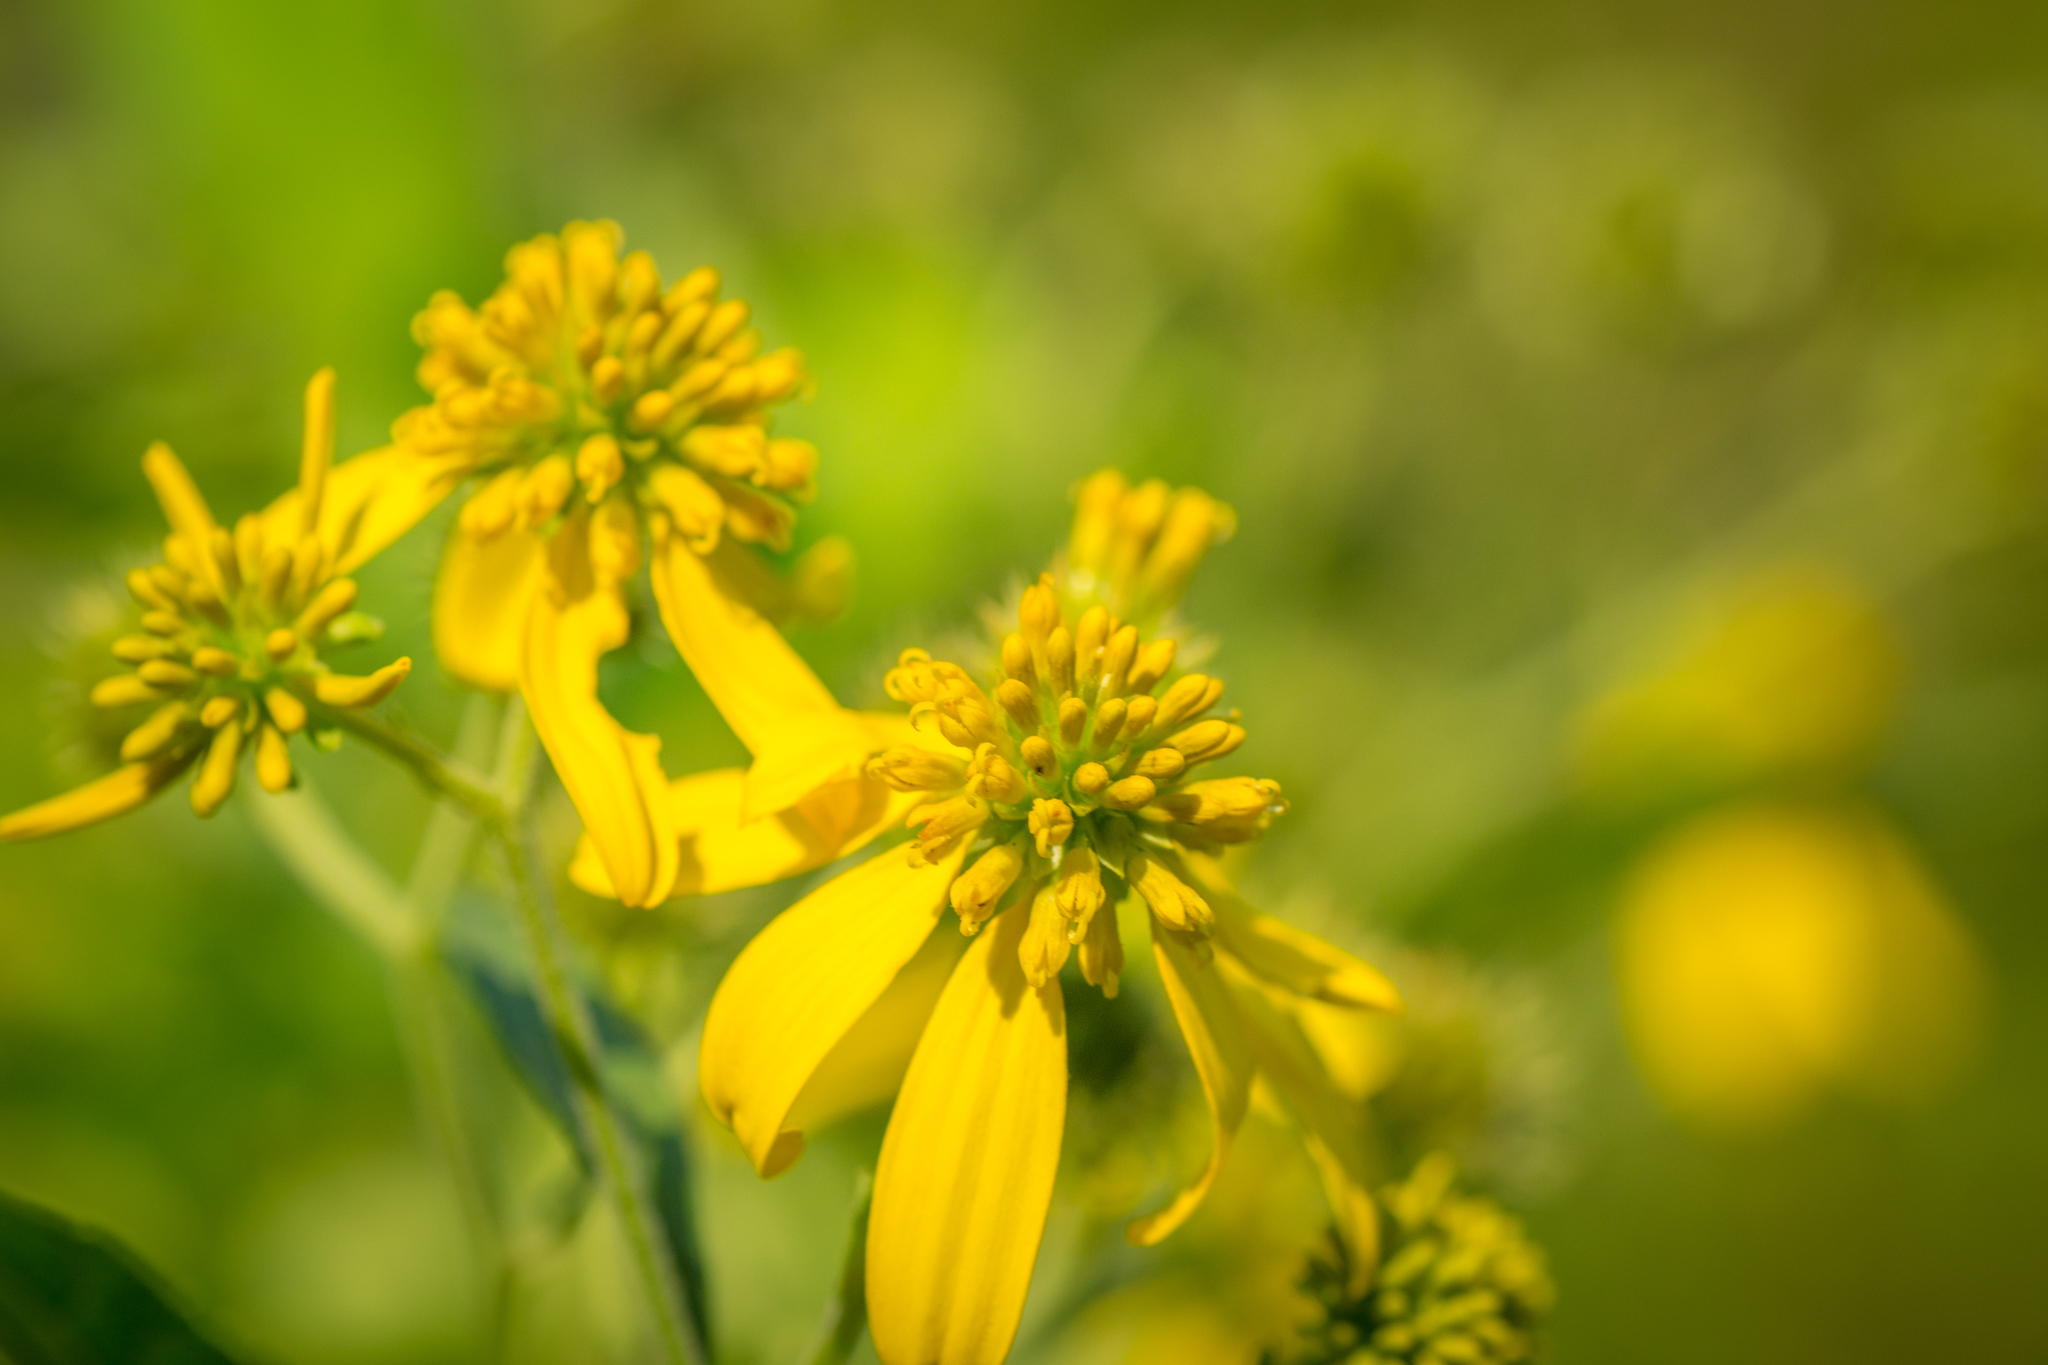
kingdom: Plantae
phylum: Tracheophyta
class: Magnoliopsida
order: Asterales
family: Asteraceae
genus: Verbesina
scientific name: Verbesina alternifolia
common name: Wingstem
